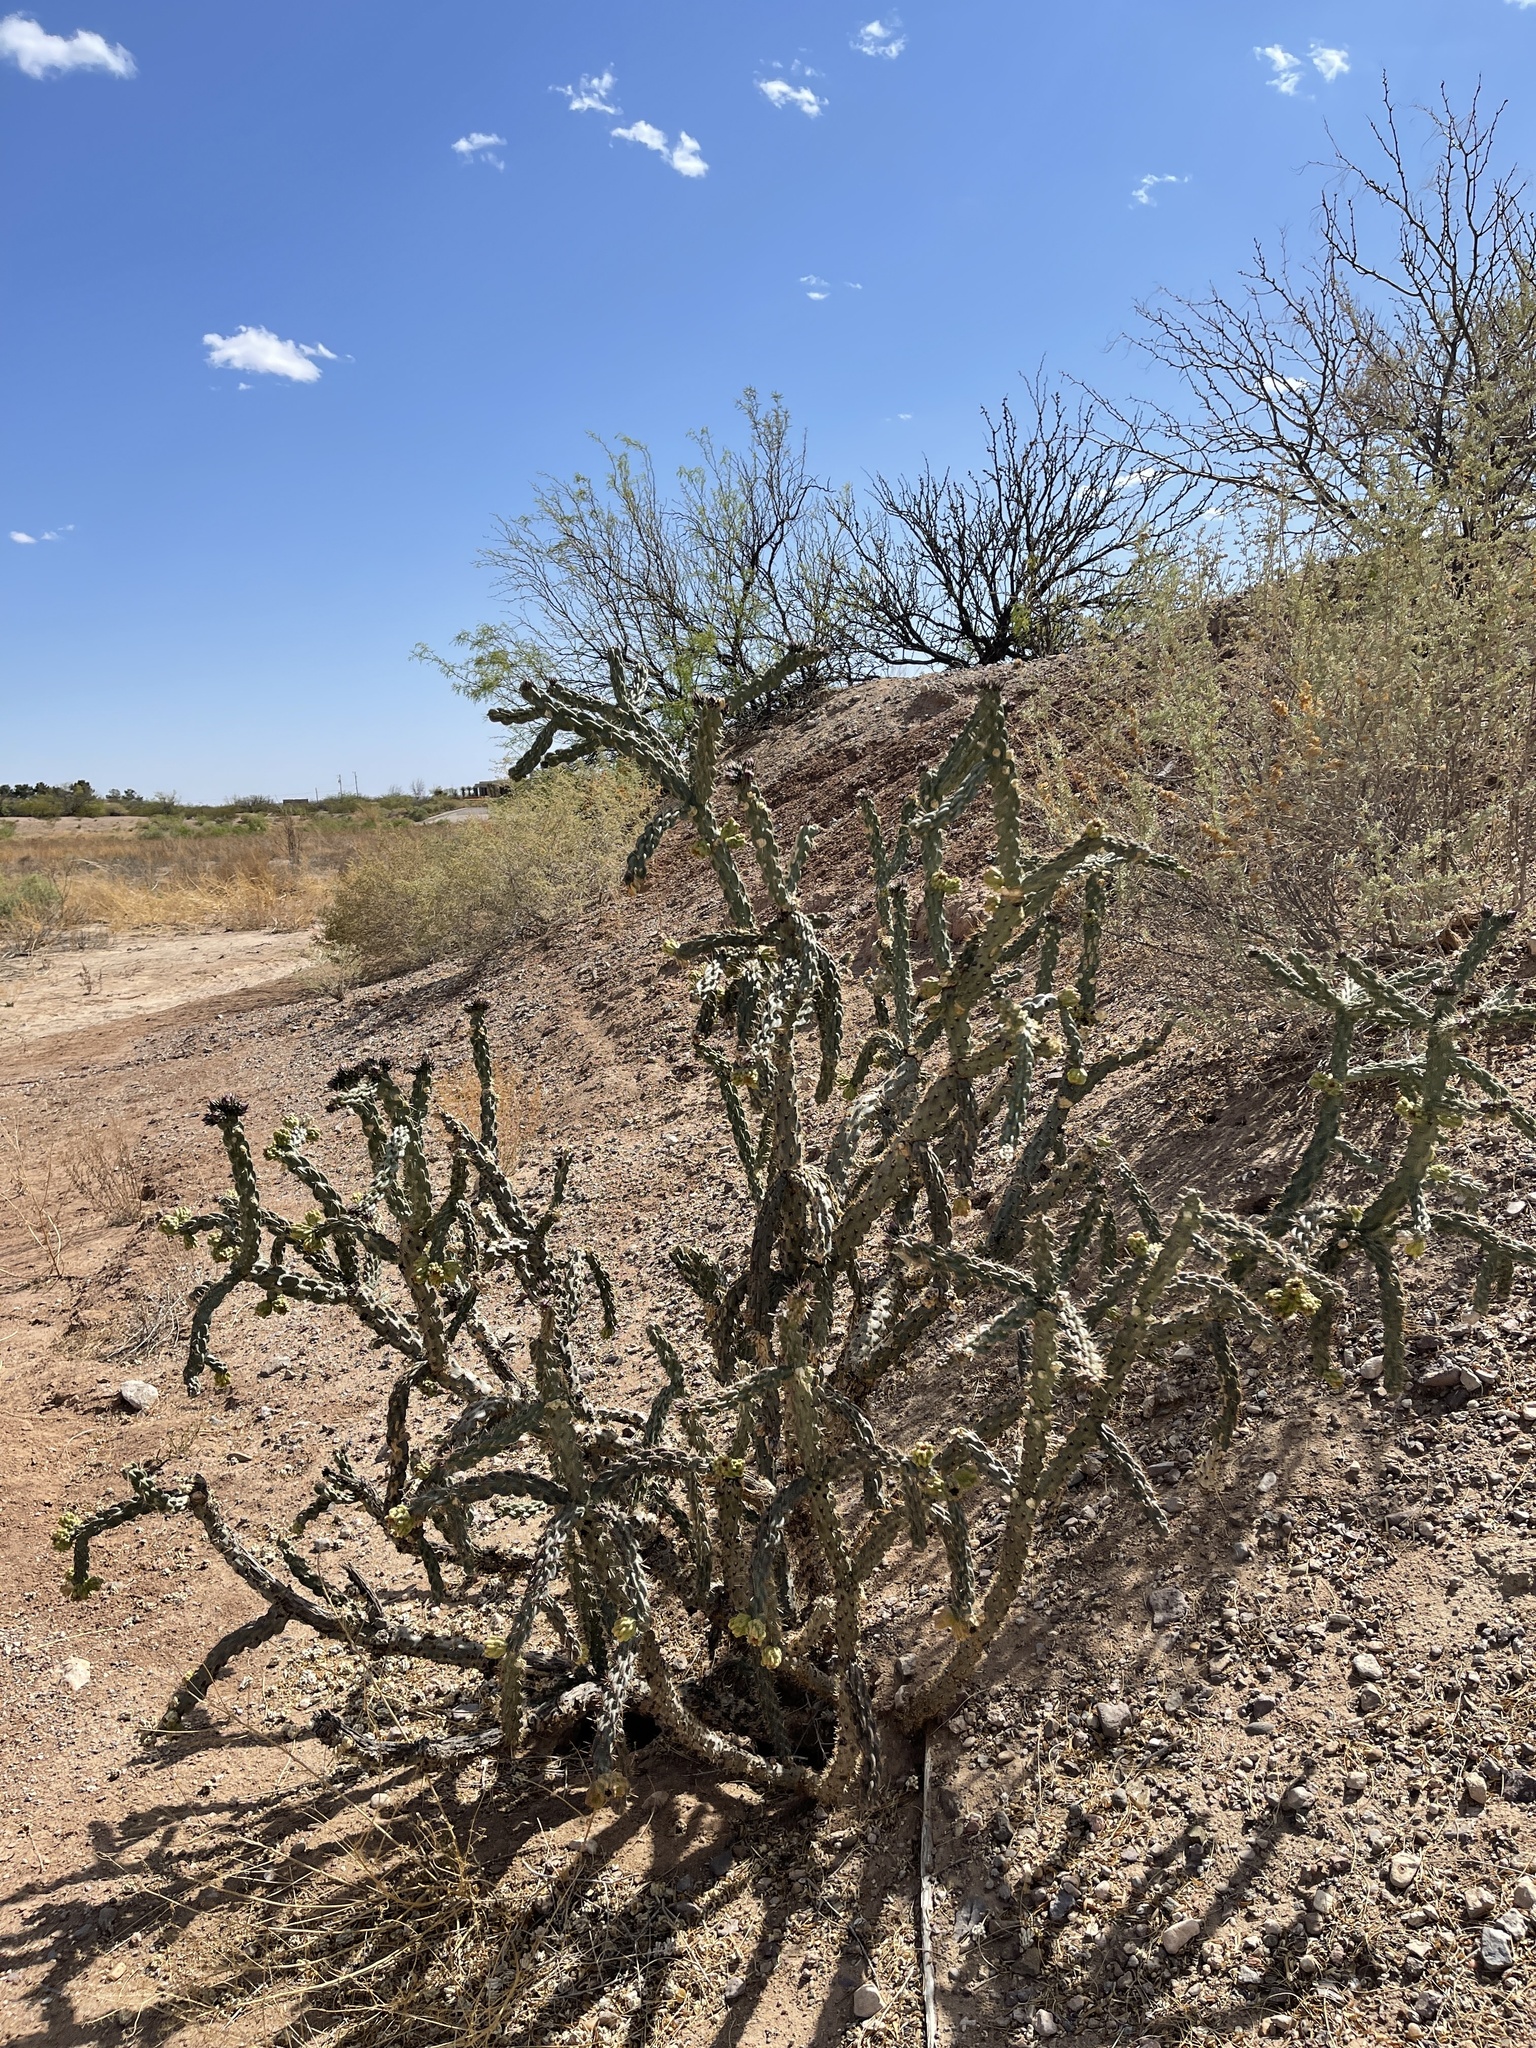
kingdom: Plantae
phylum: Tracheophyta
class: Magnoliopsida
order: Caryophyllales
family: Cactaceae
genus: Cylindropuntia
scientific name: Cylindropuntia imbricata
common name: Candelabrum cactus
